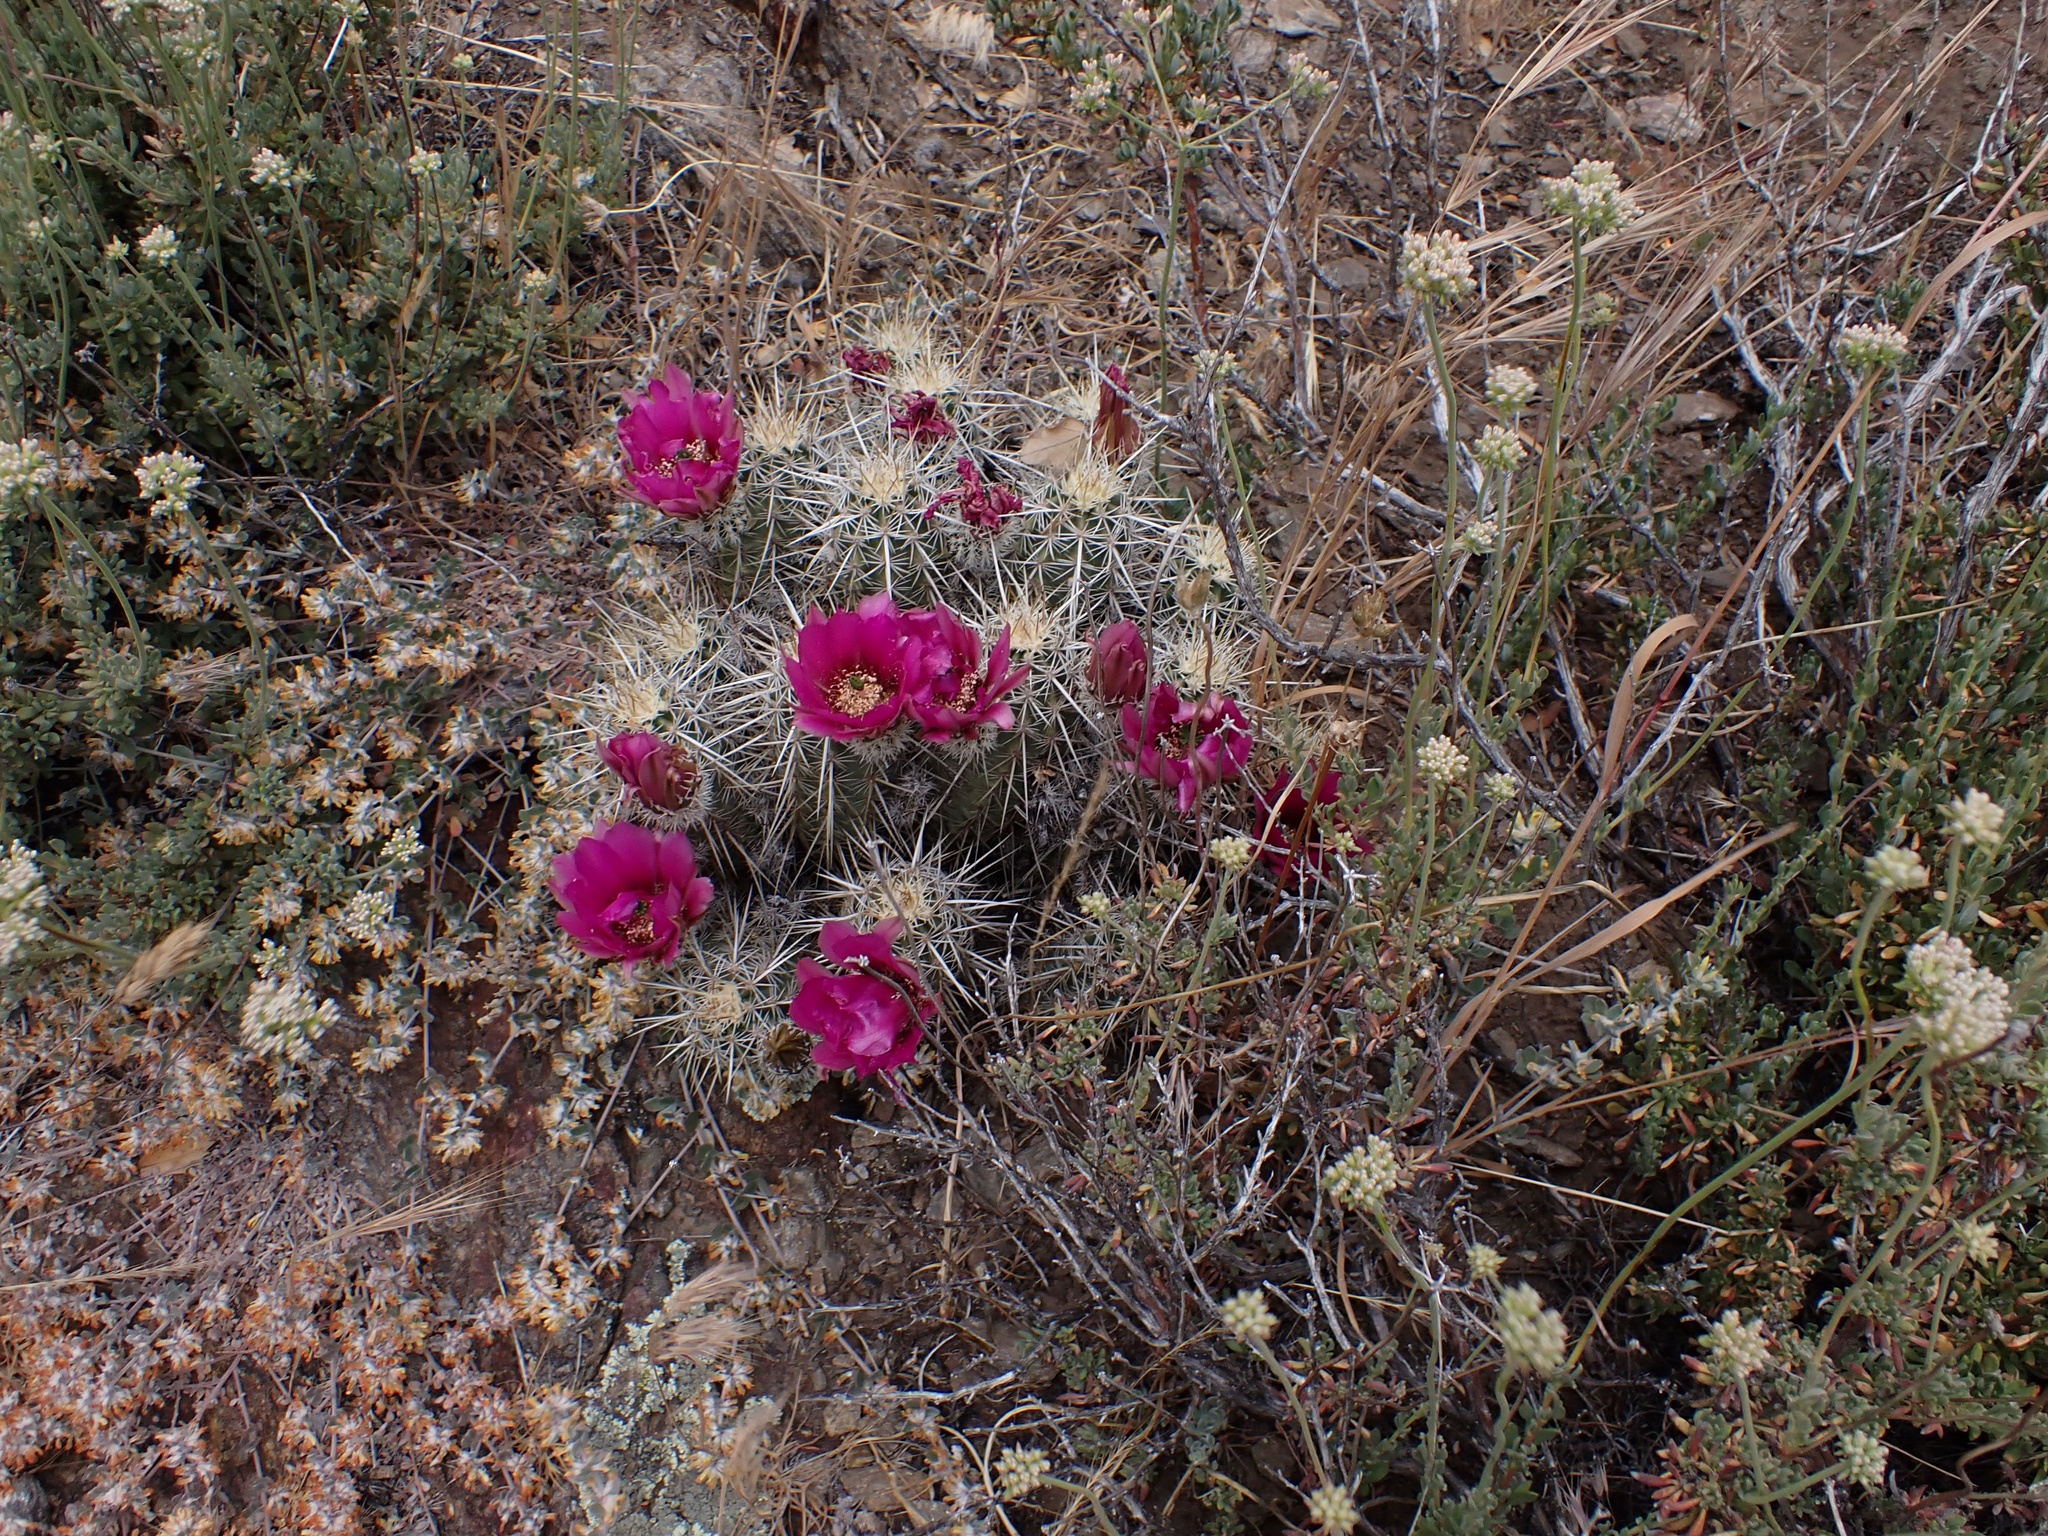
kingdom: Plantae
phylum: Tracheophyta
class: Magnoliopsida
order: Caryophyllales
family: Cactaceae
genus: Echinocereus
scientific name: Echinocereus engelmannii
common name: Engelmann's hedgehog cactus
